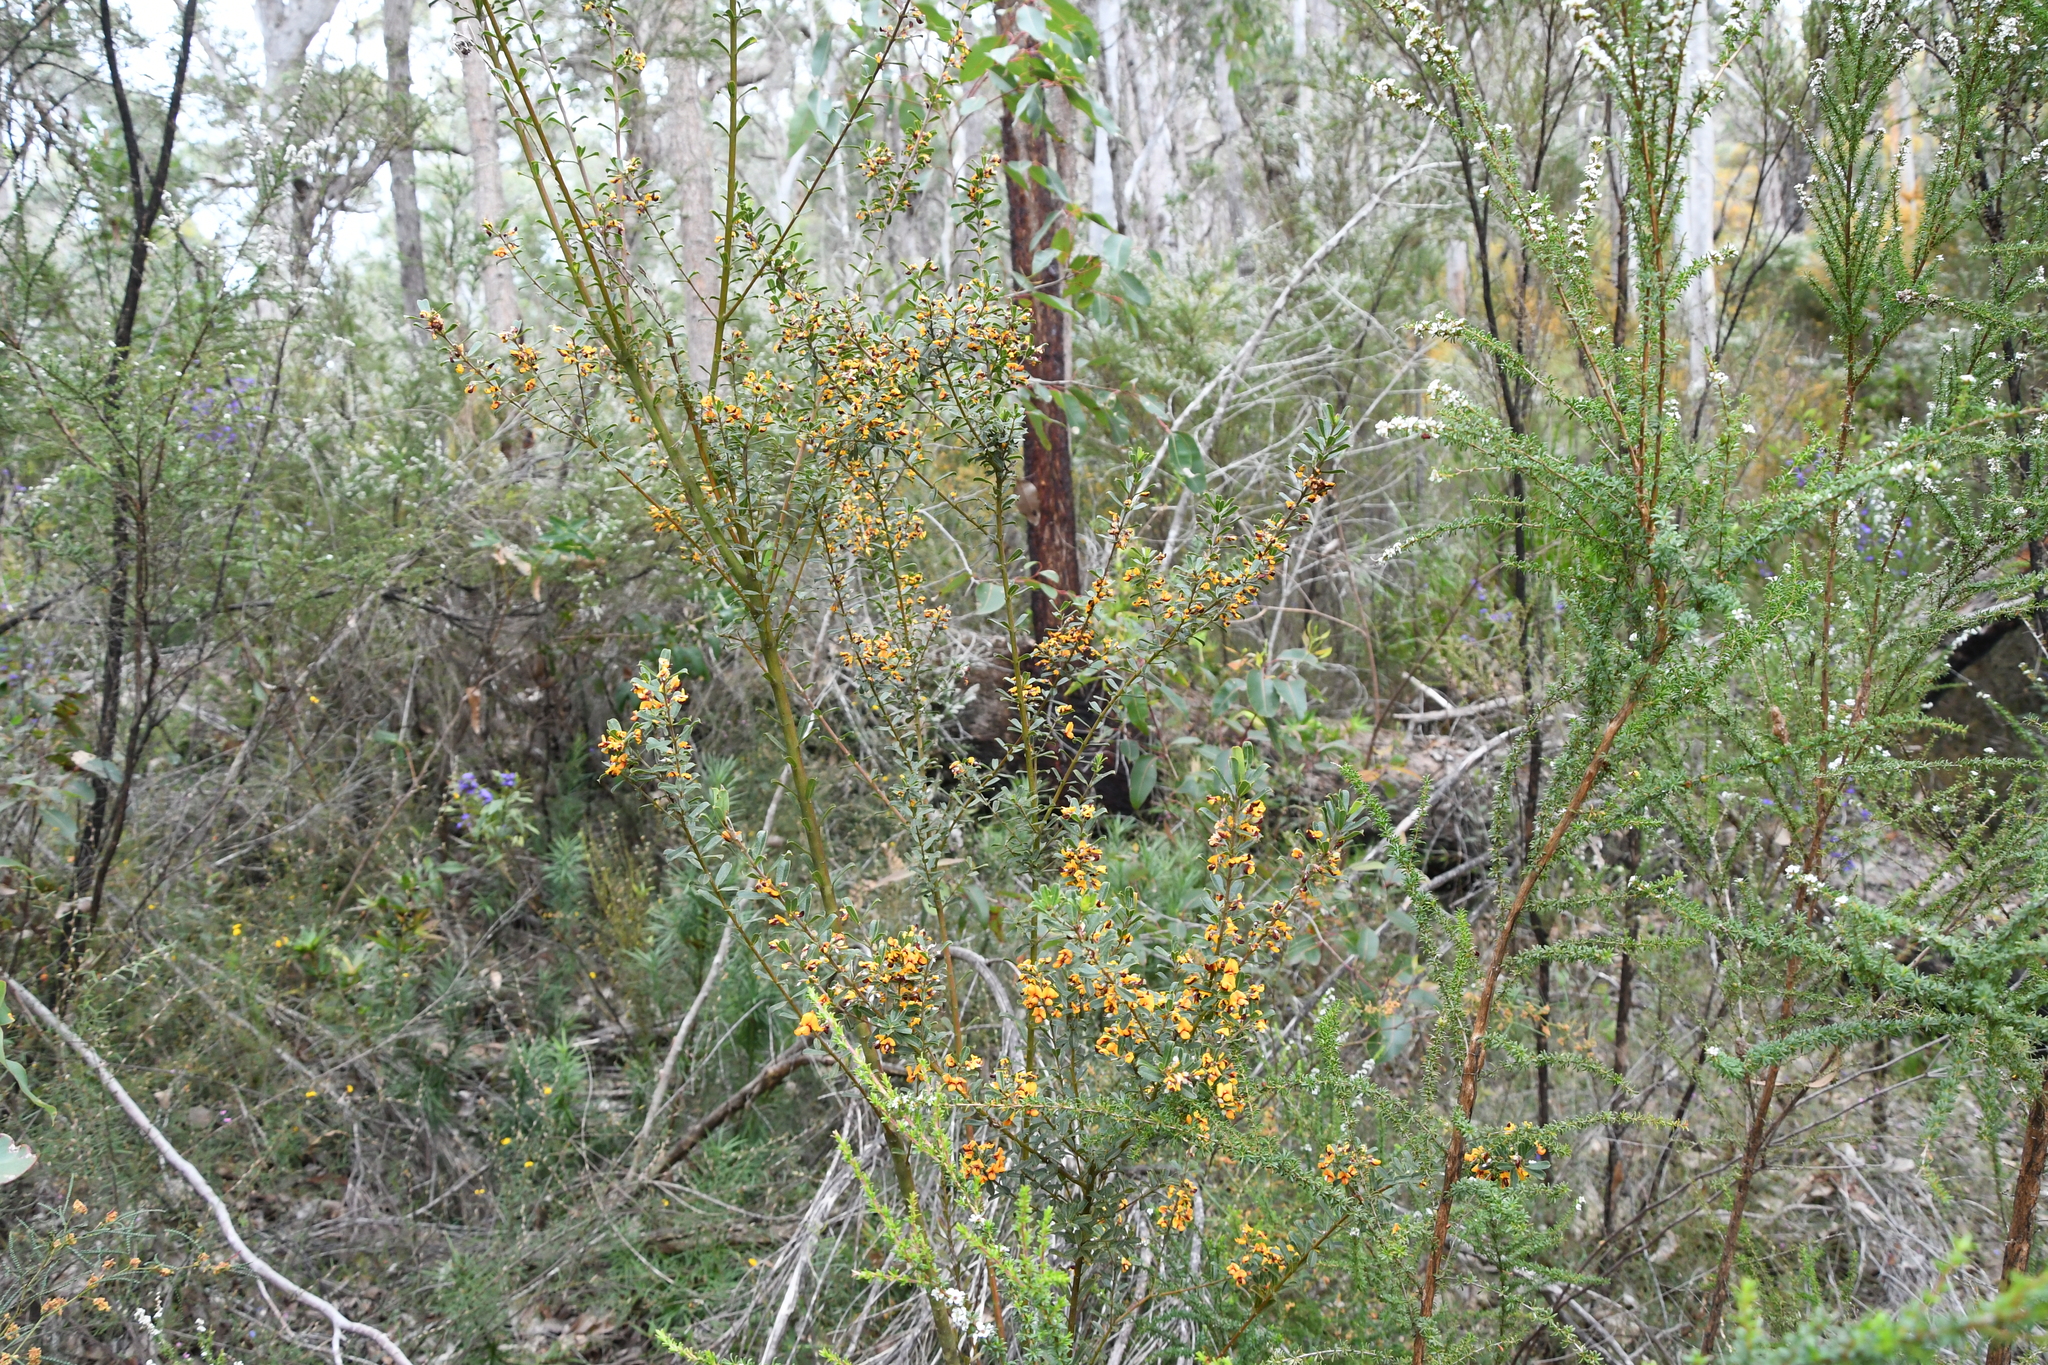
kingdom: Plantae
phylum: Tracheophyta
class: Magnoliopsida
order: Fabales
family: Fabaceae
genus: Gastrolobium
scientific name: Gastrolobium brownii
